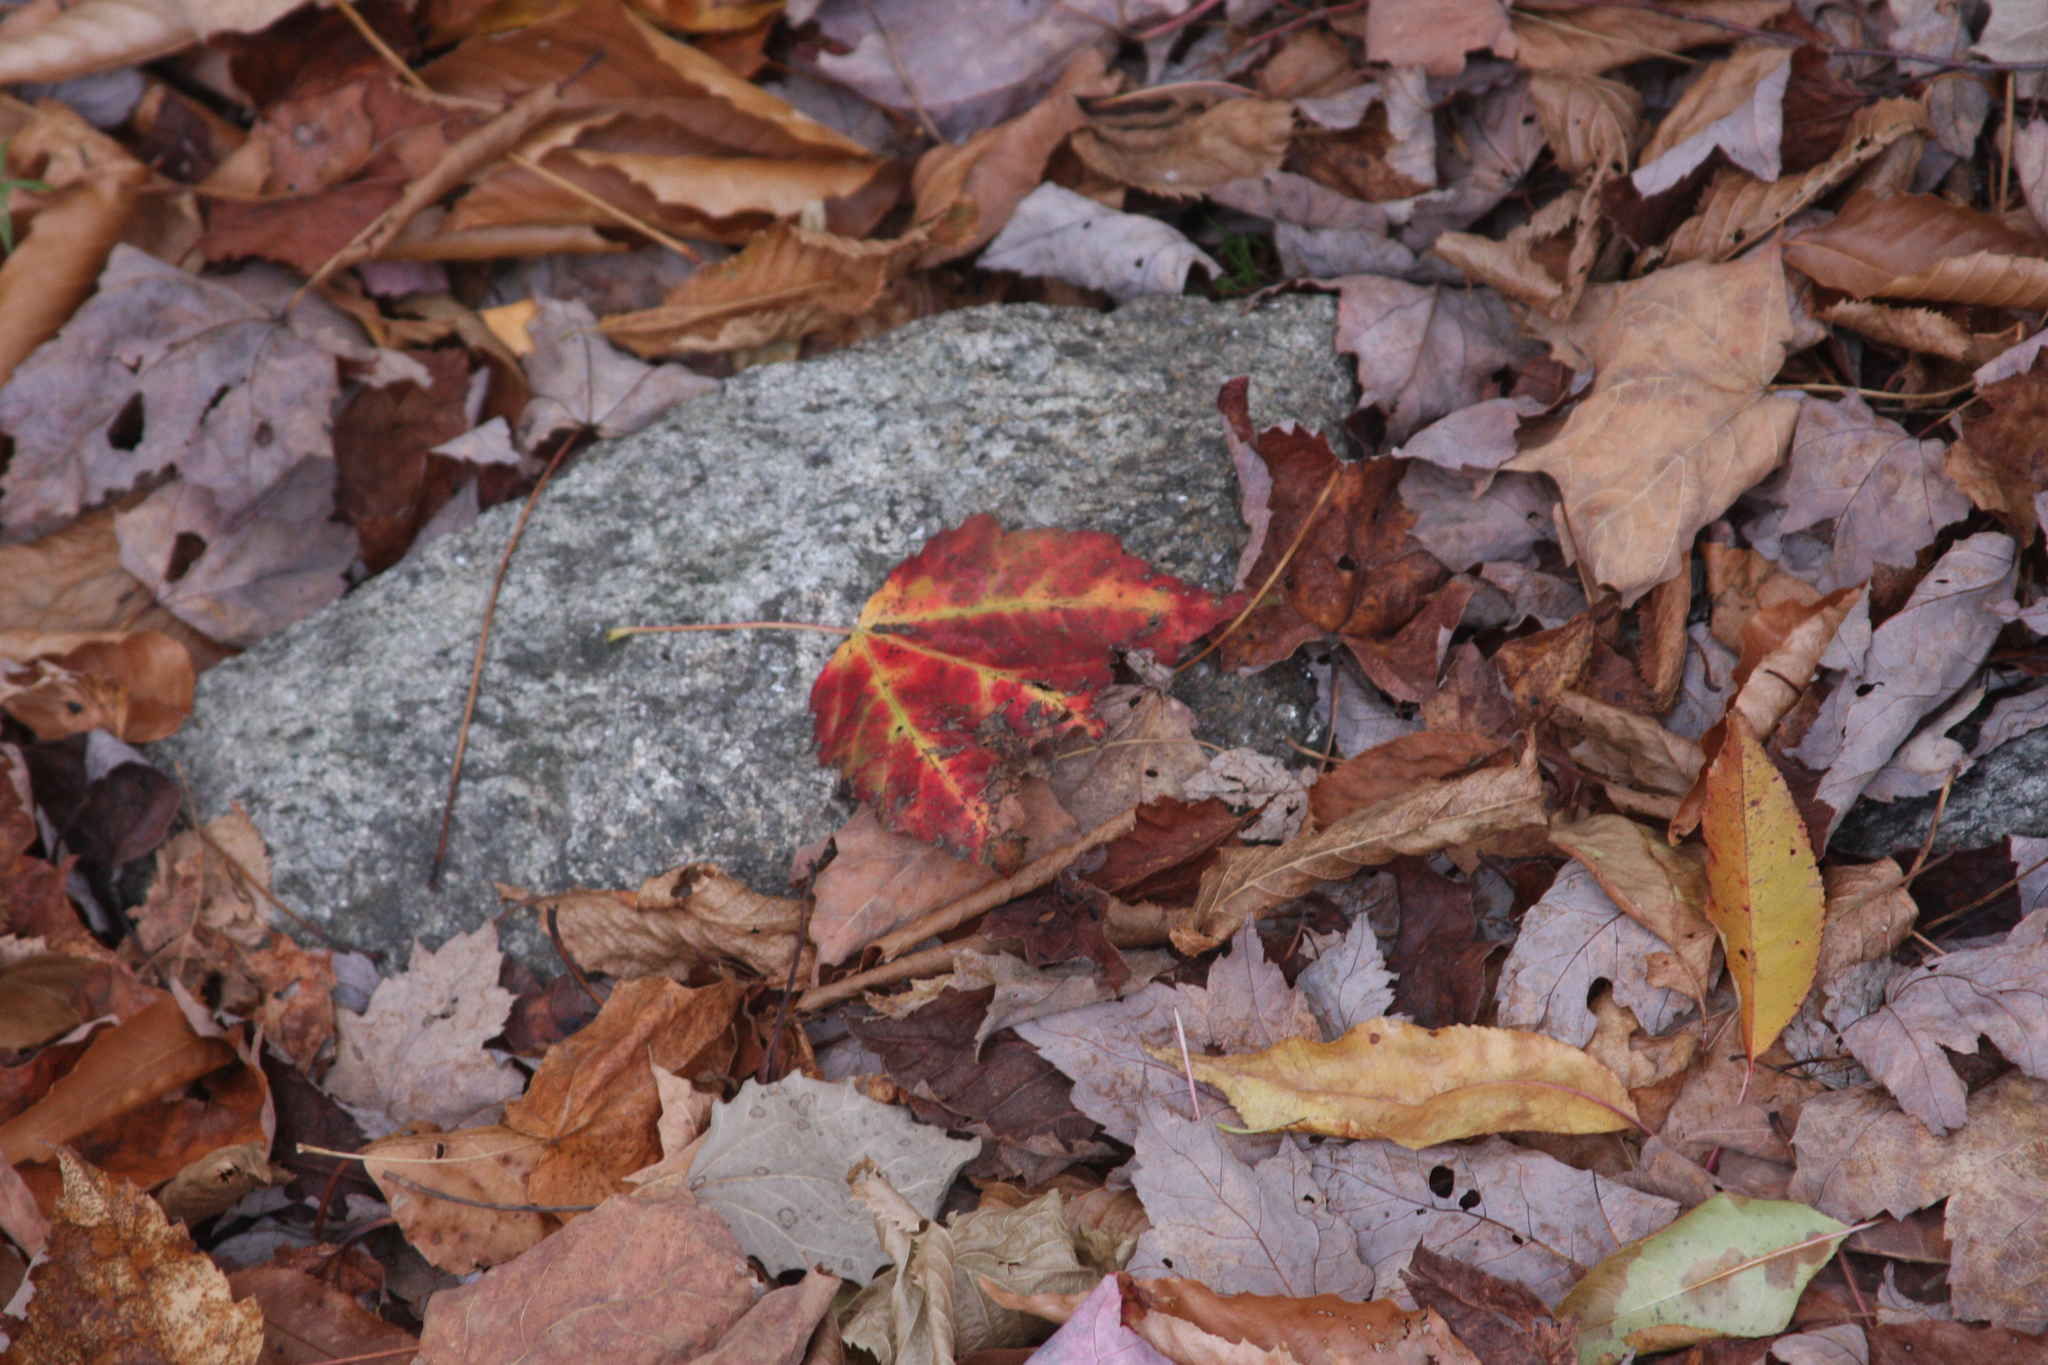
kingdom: Plantae
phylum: Tracheophyta
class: Magnoliopsida
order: Sapindales
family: Sapindaceae
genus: Acer
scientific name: Acer rubrum
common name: Red maple
